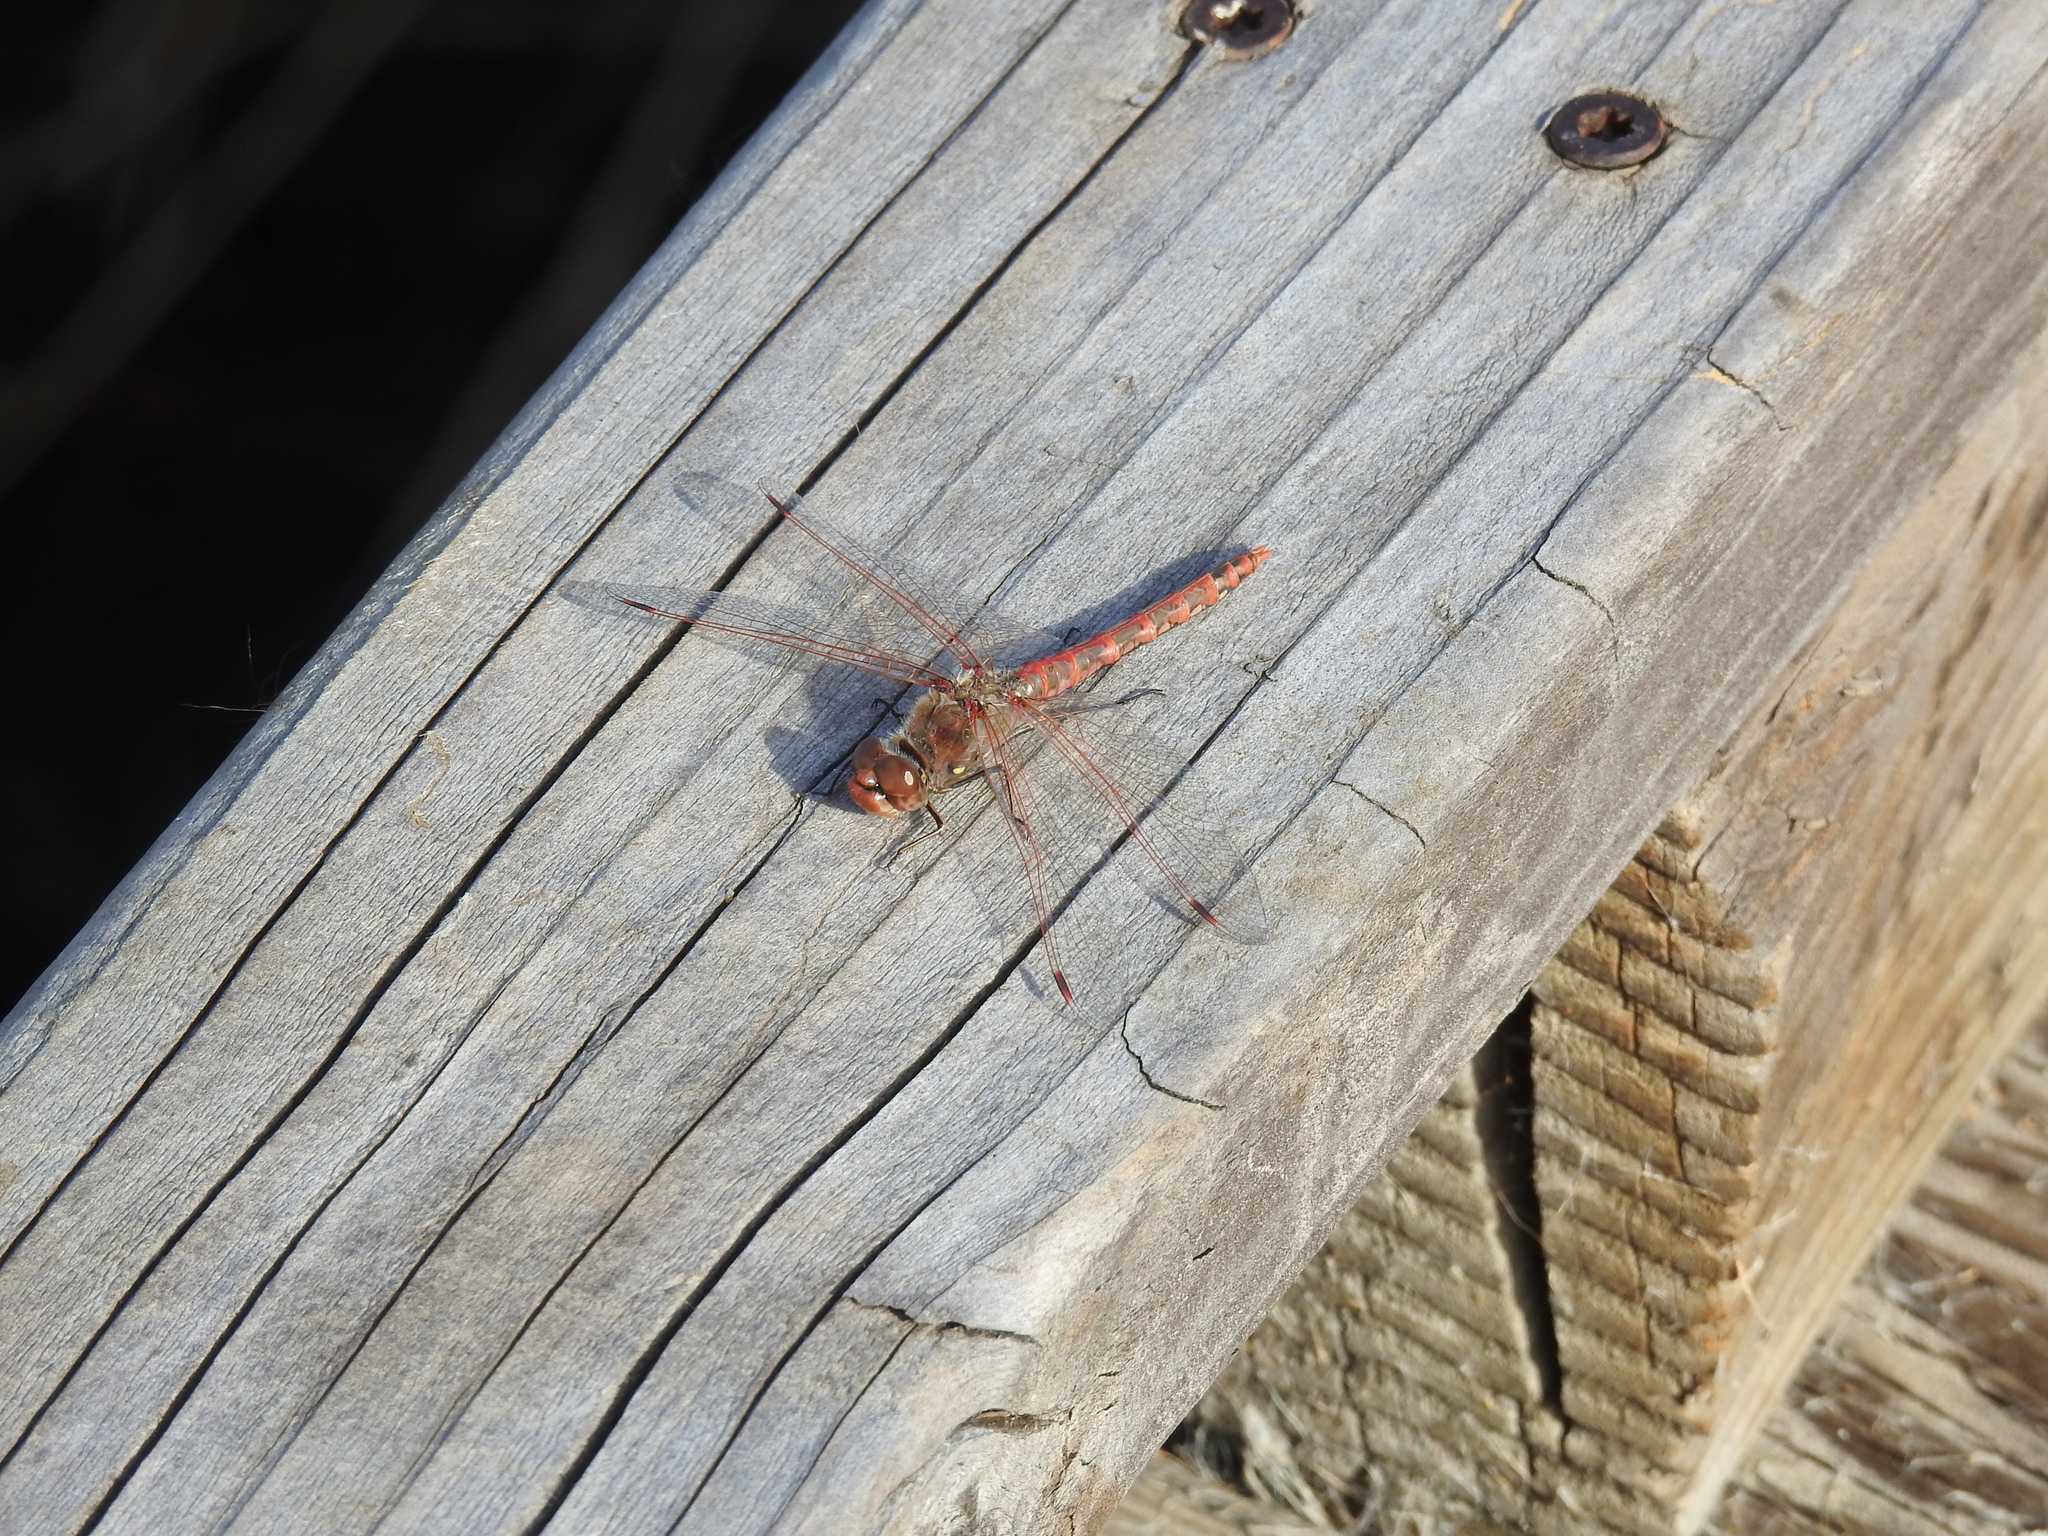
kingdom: Animalia
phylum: Arthropoda
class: Insecta
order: Odonata
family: Libellulidae
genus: Sympetrum
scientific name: Sympetrum corruptum
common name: Variegated meadowhawk
